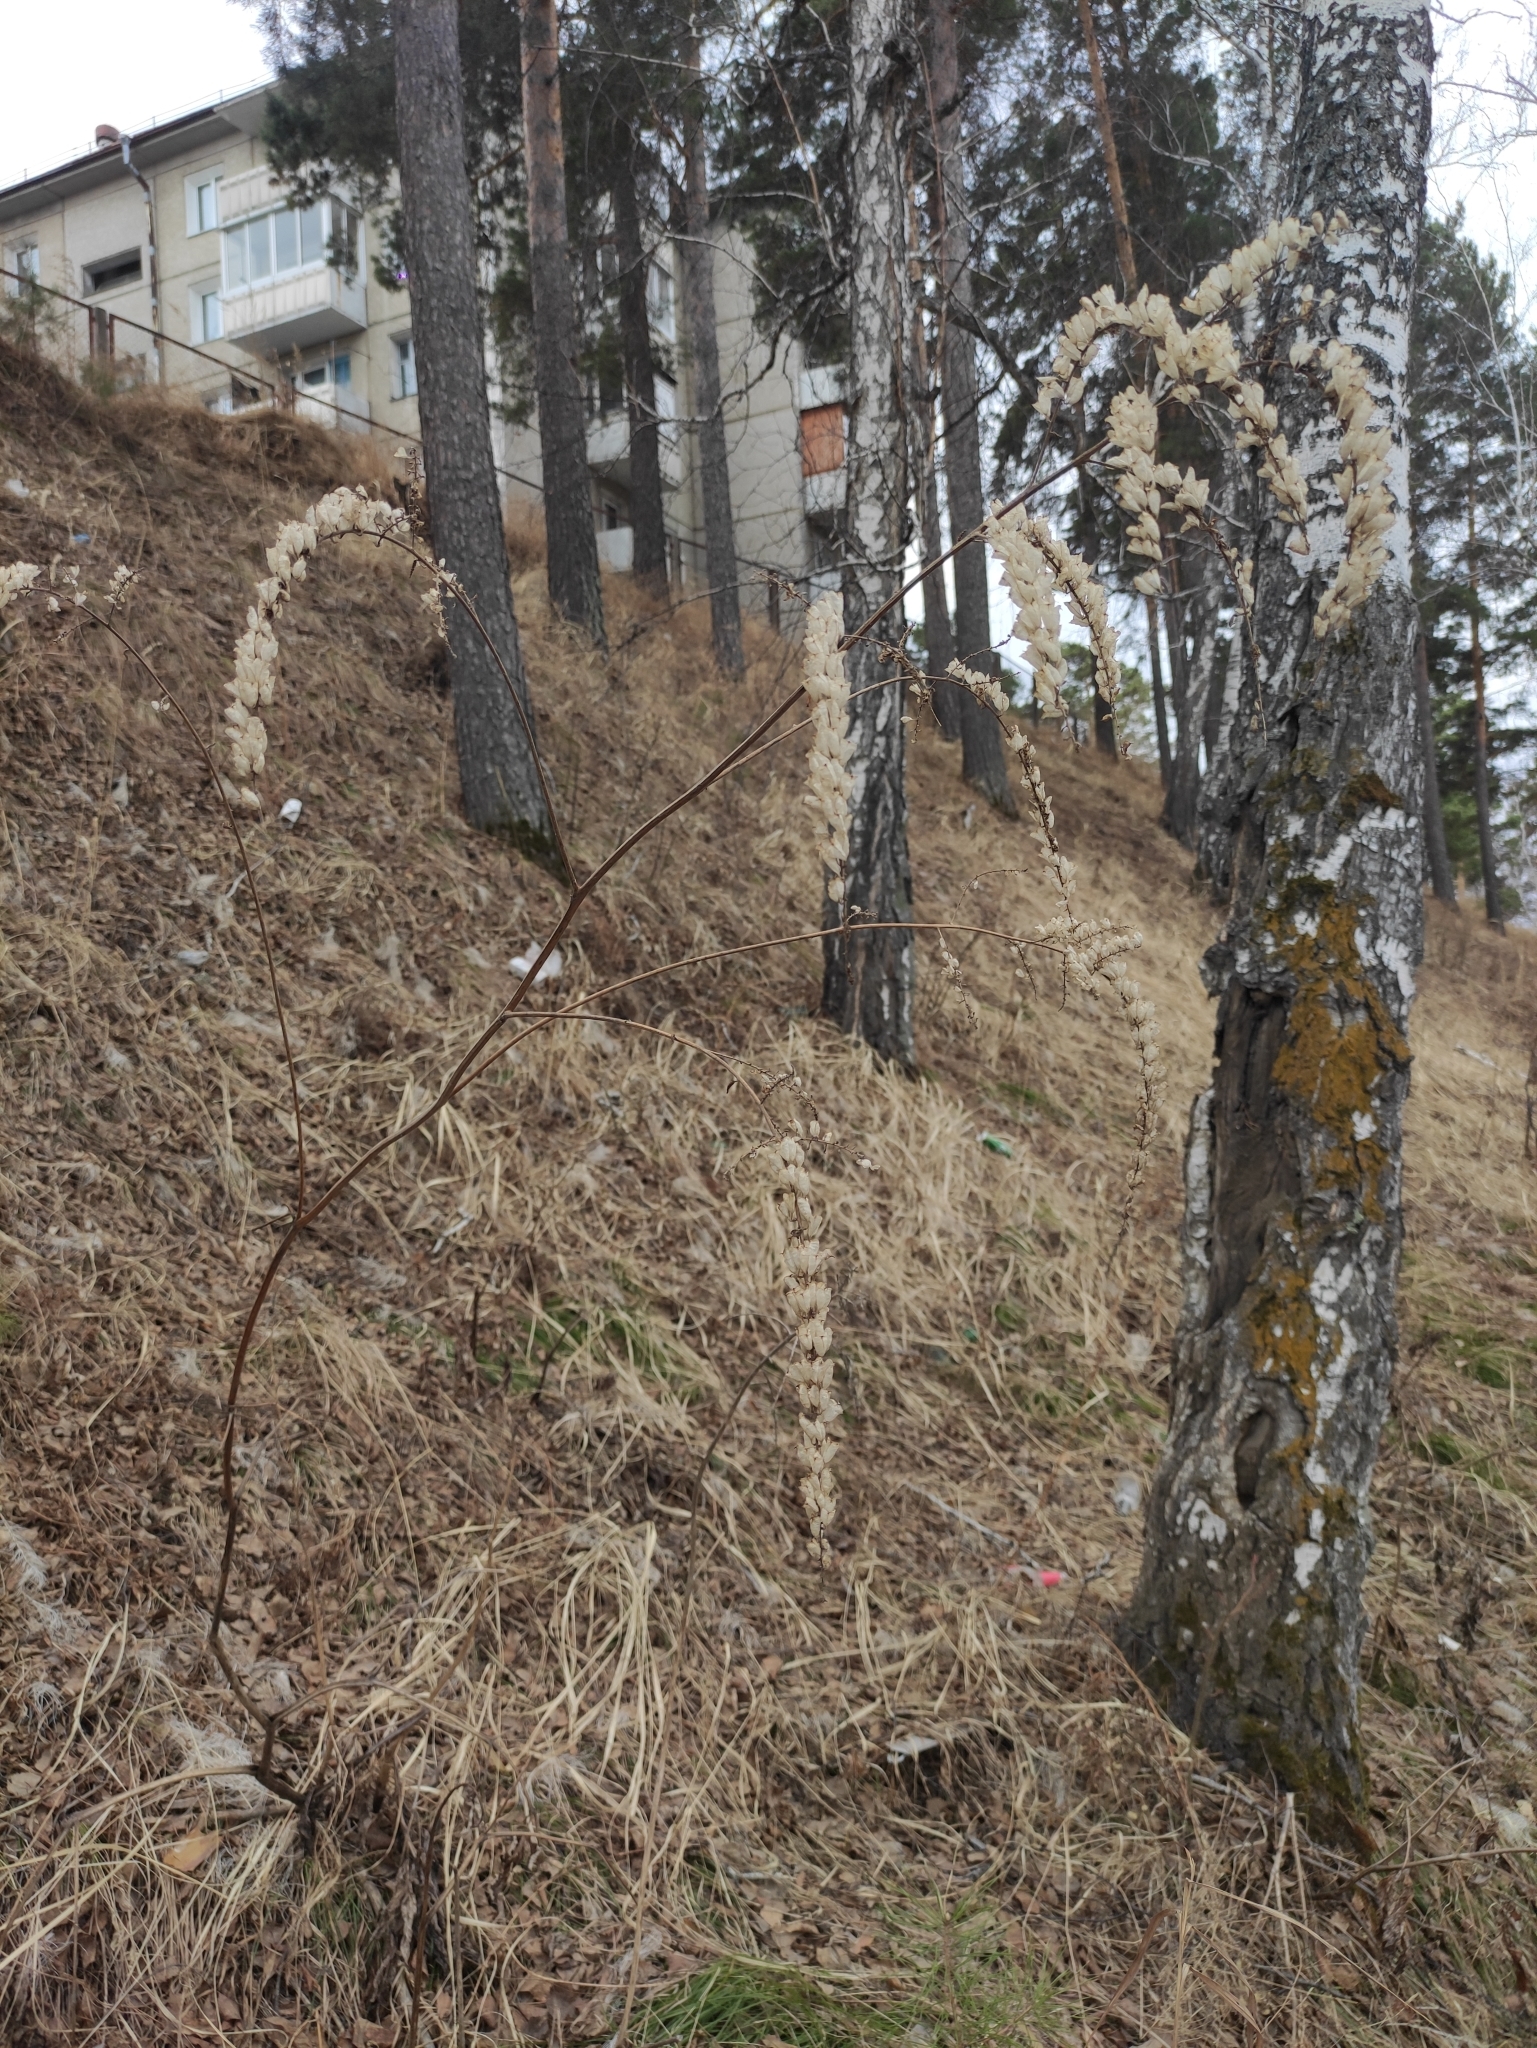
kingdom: Plantae
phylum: Tracheophyta
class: Magnoliopsida
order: Ranunculales
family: Ranunculaceae
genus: Actaea
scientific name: Actaea cimicifuga
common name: Chinese cimicifuga
